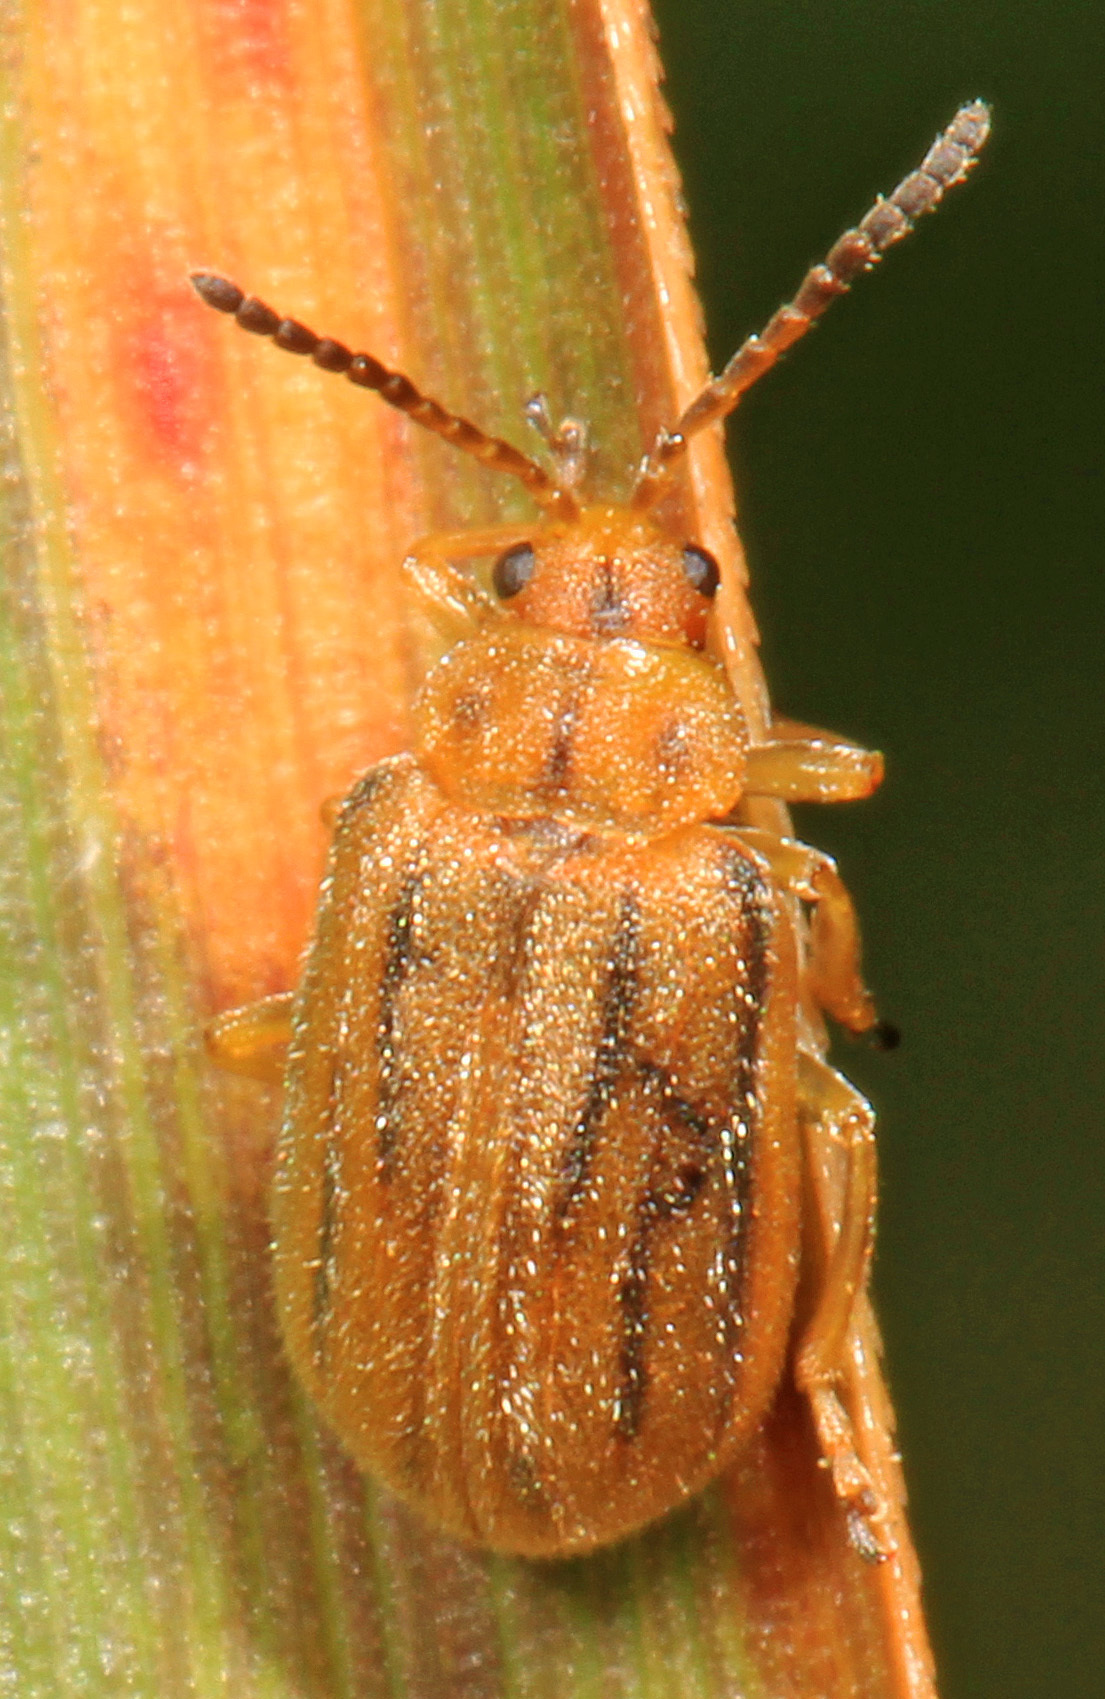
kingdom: Animalia
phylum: Arthropoda
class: Insecta
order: Coleoptera
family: Chrysomelidae
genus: Ophraella
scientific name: Ophraella communa
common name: Ragweed leaf beetle
